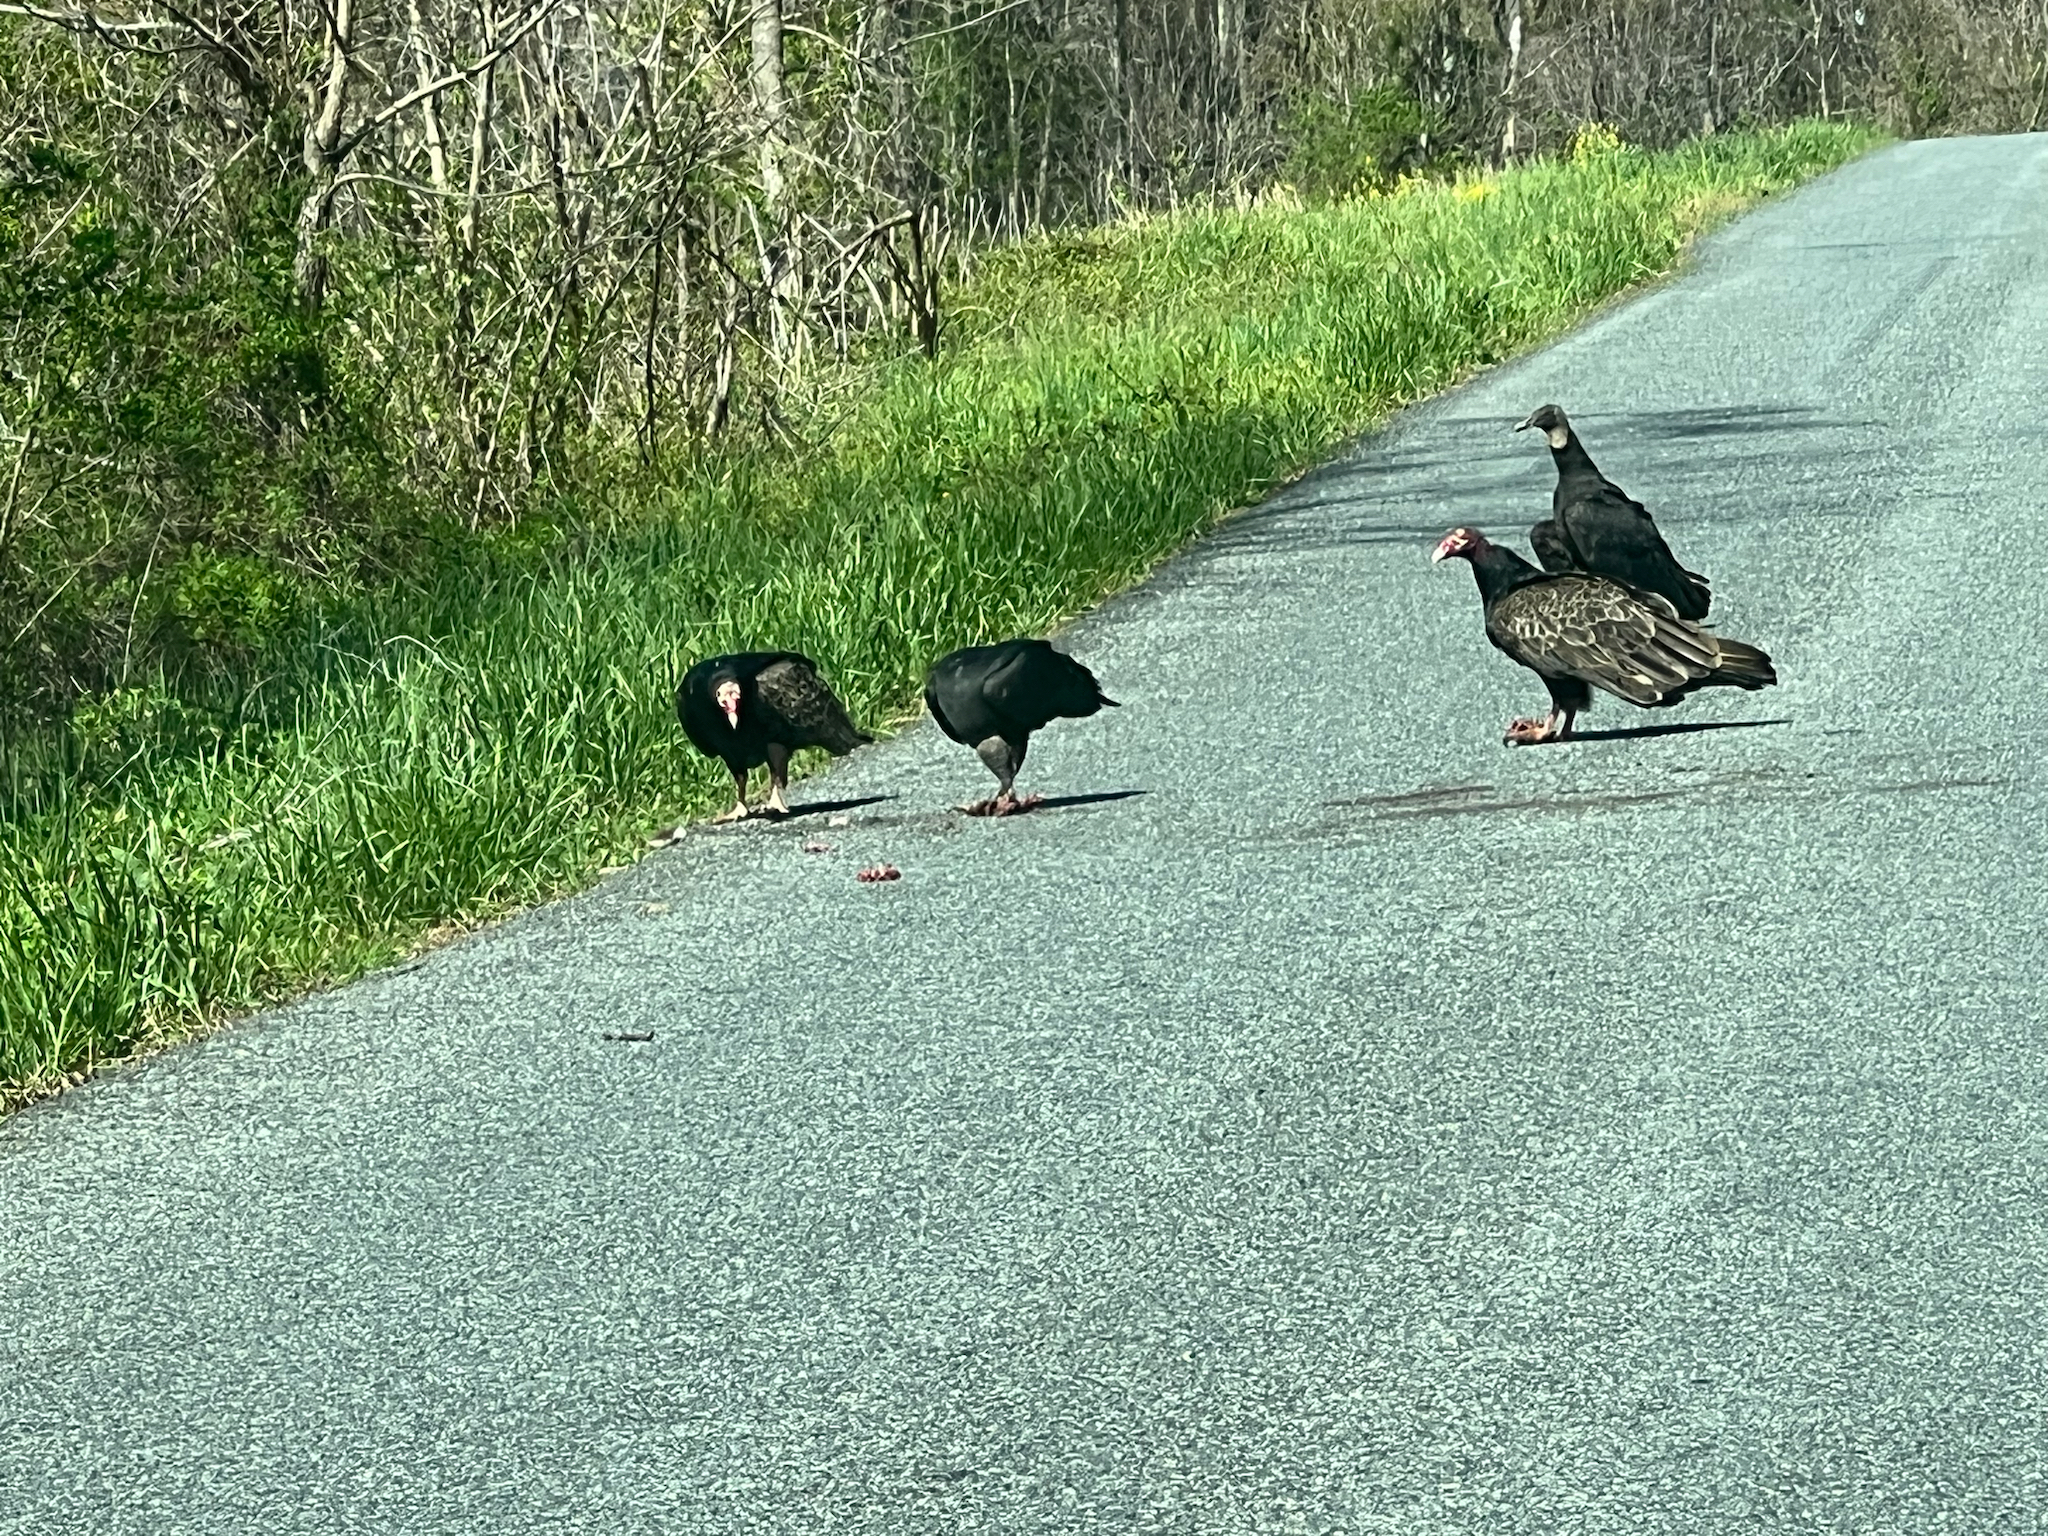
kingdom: Animalia
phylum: Chordata
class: Aves
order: Accipitriformes
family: Cathartidae
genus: Coragyps
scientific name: Coragyps atratus
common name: Black vulture
